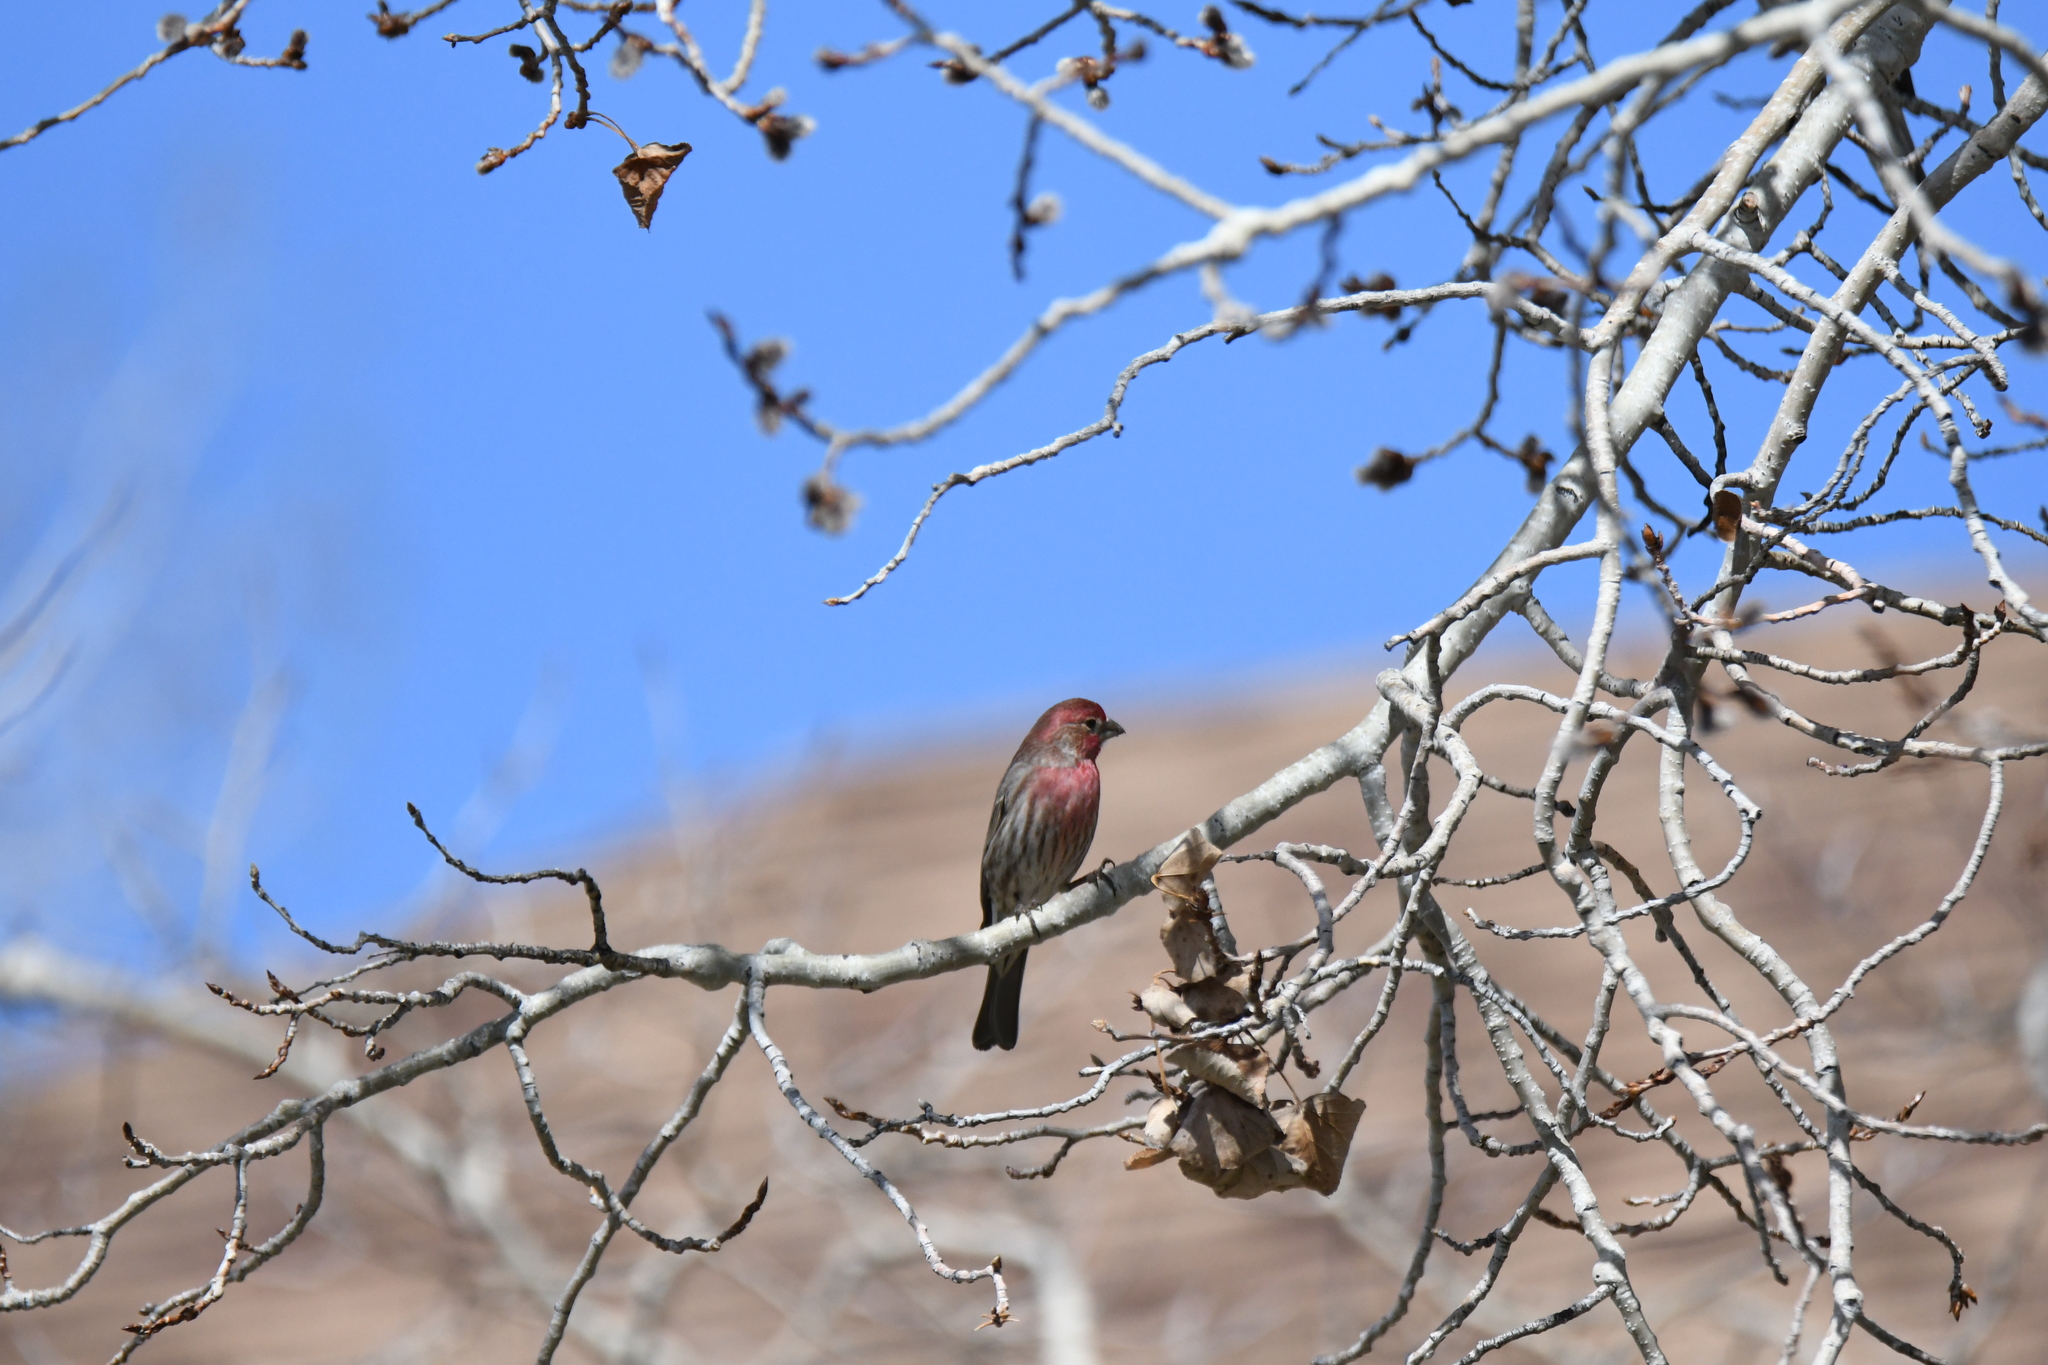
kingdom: Animalia
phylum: Chordata
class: Aves
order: Passeriformes
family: Fringillidae
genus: Haemorhous
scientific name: Haemorhous mexicanus
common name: House finch
